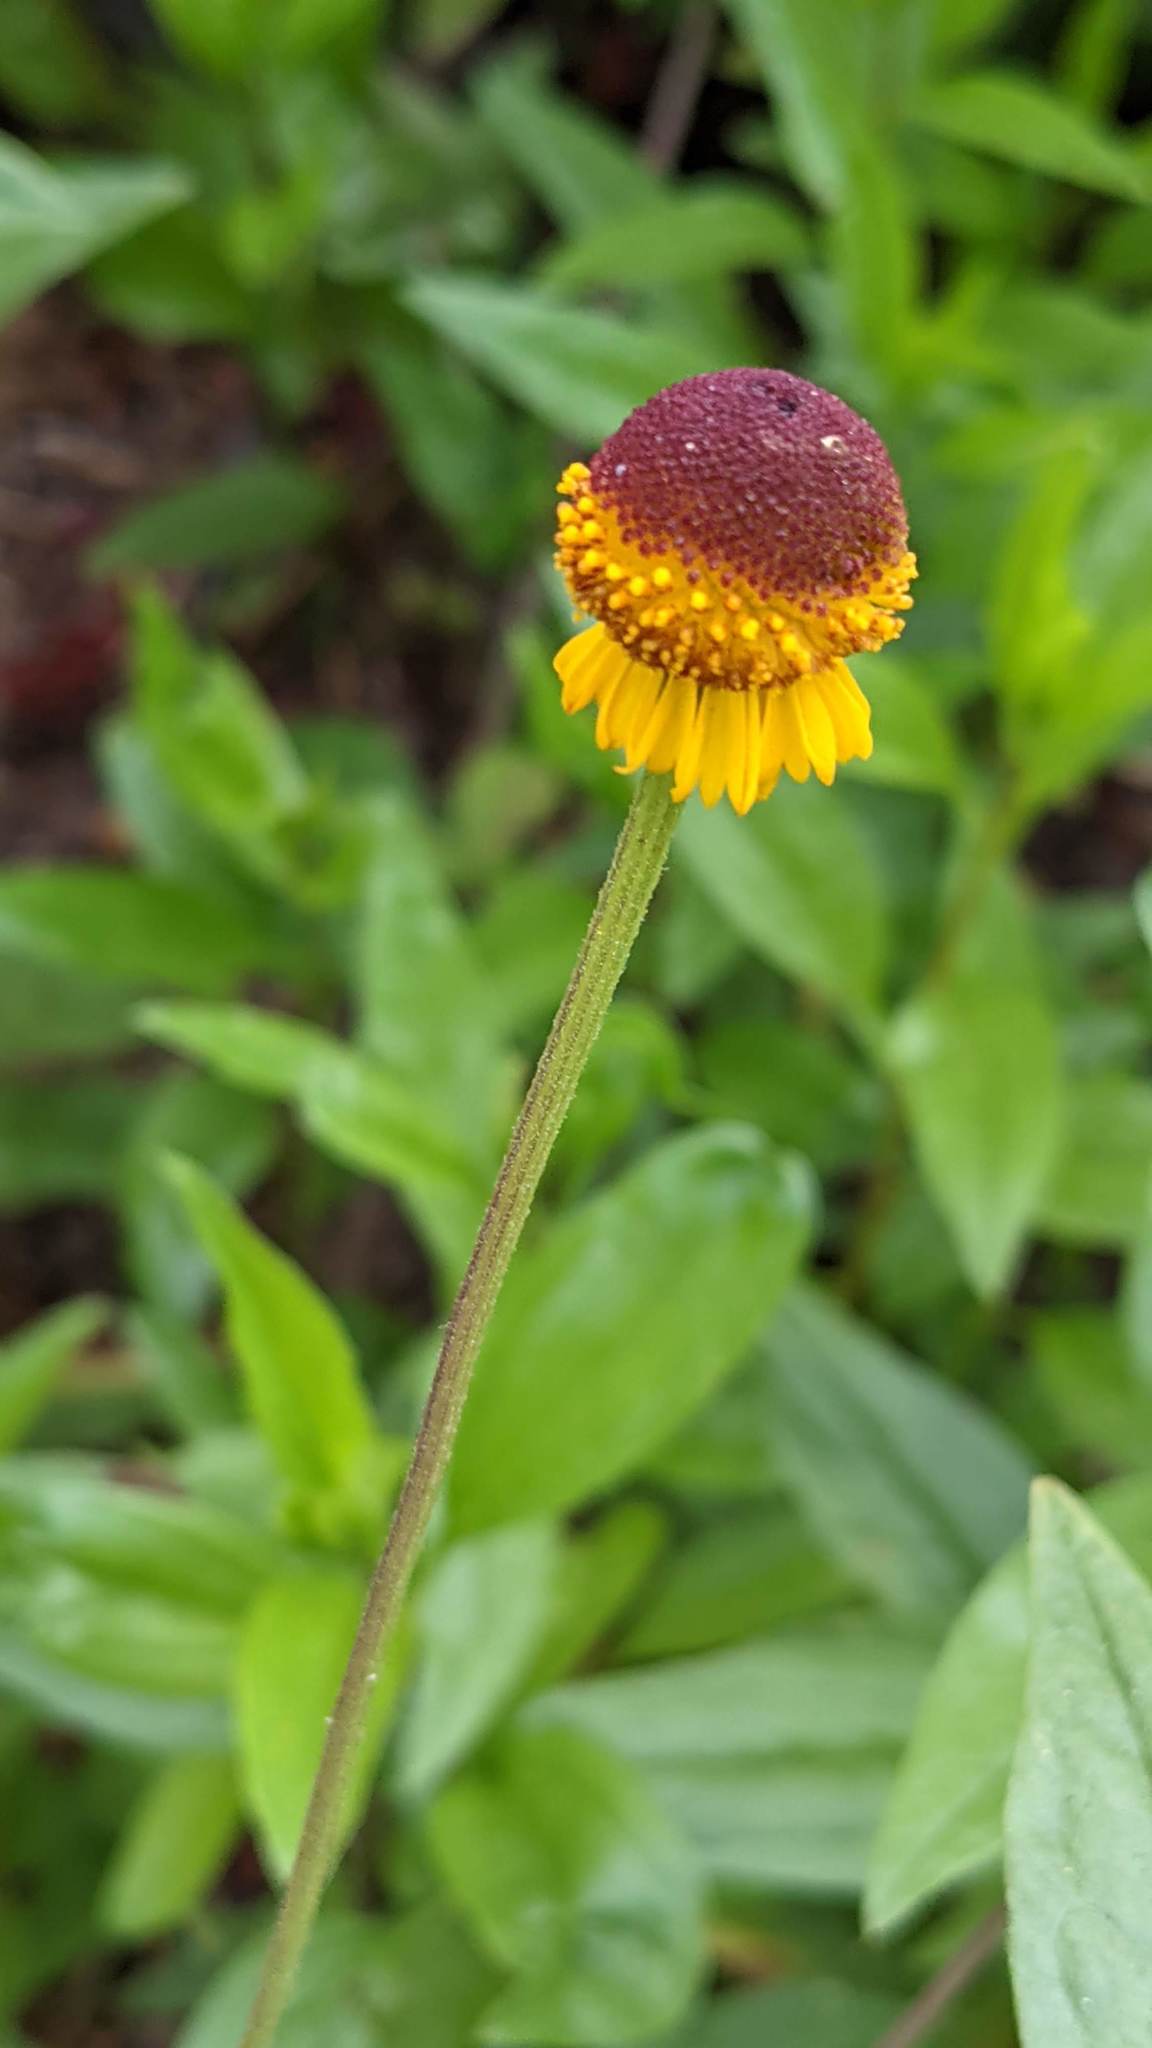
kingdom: Plantae
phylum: Tracheophyta
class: Magnoliopsida
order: Asterales
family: Asteraceae
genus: Helenium
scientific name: Helenium puberulum
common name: Sneezewort
